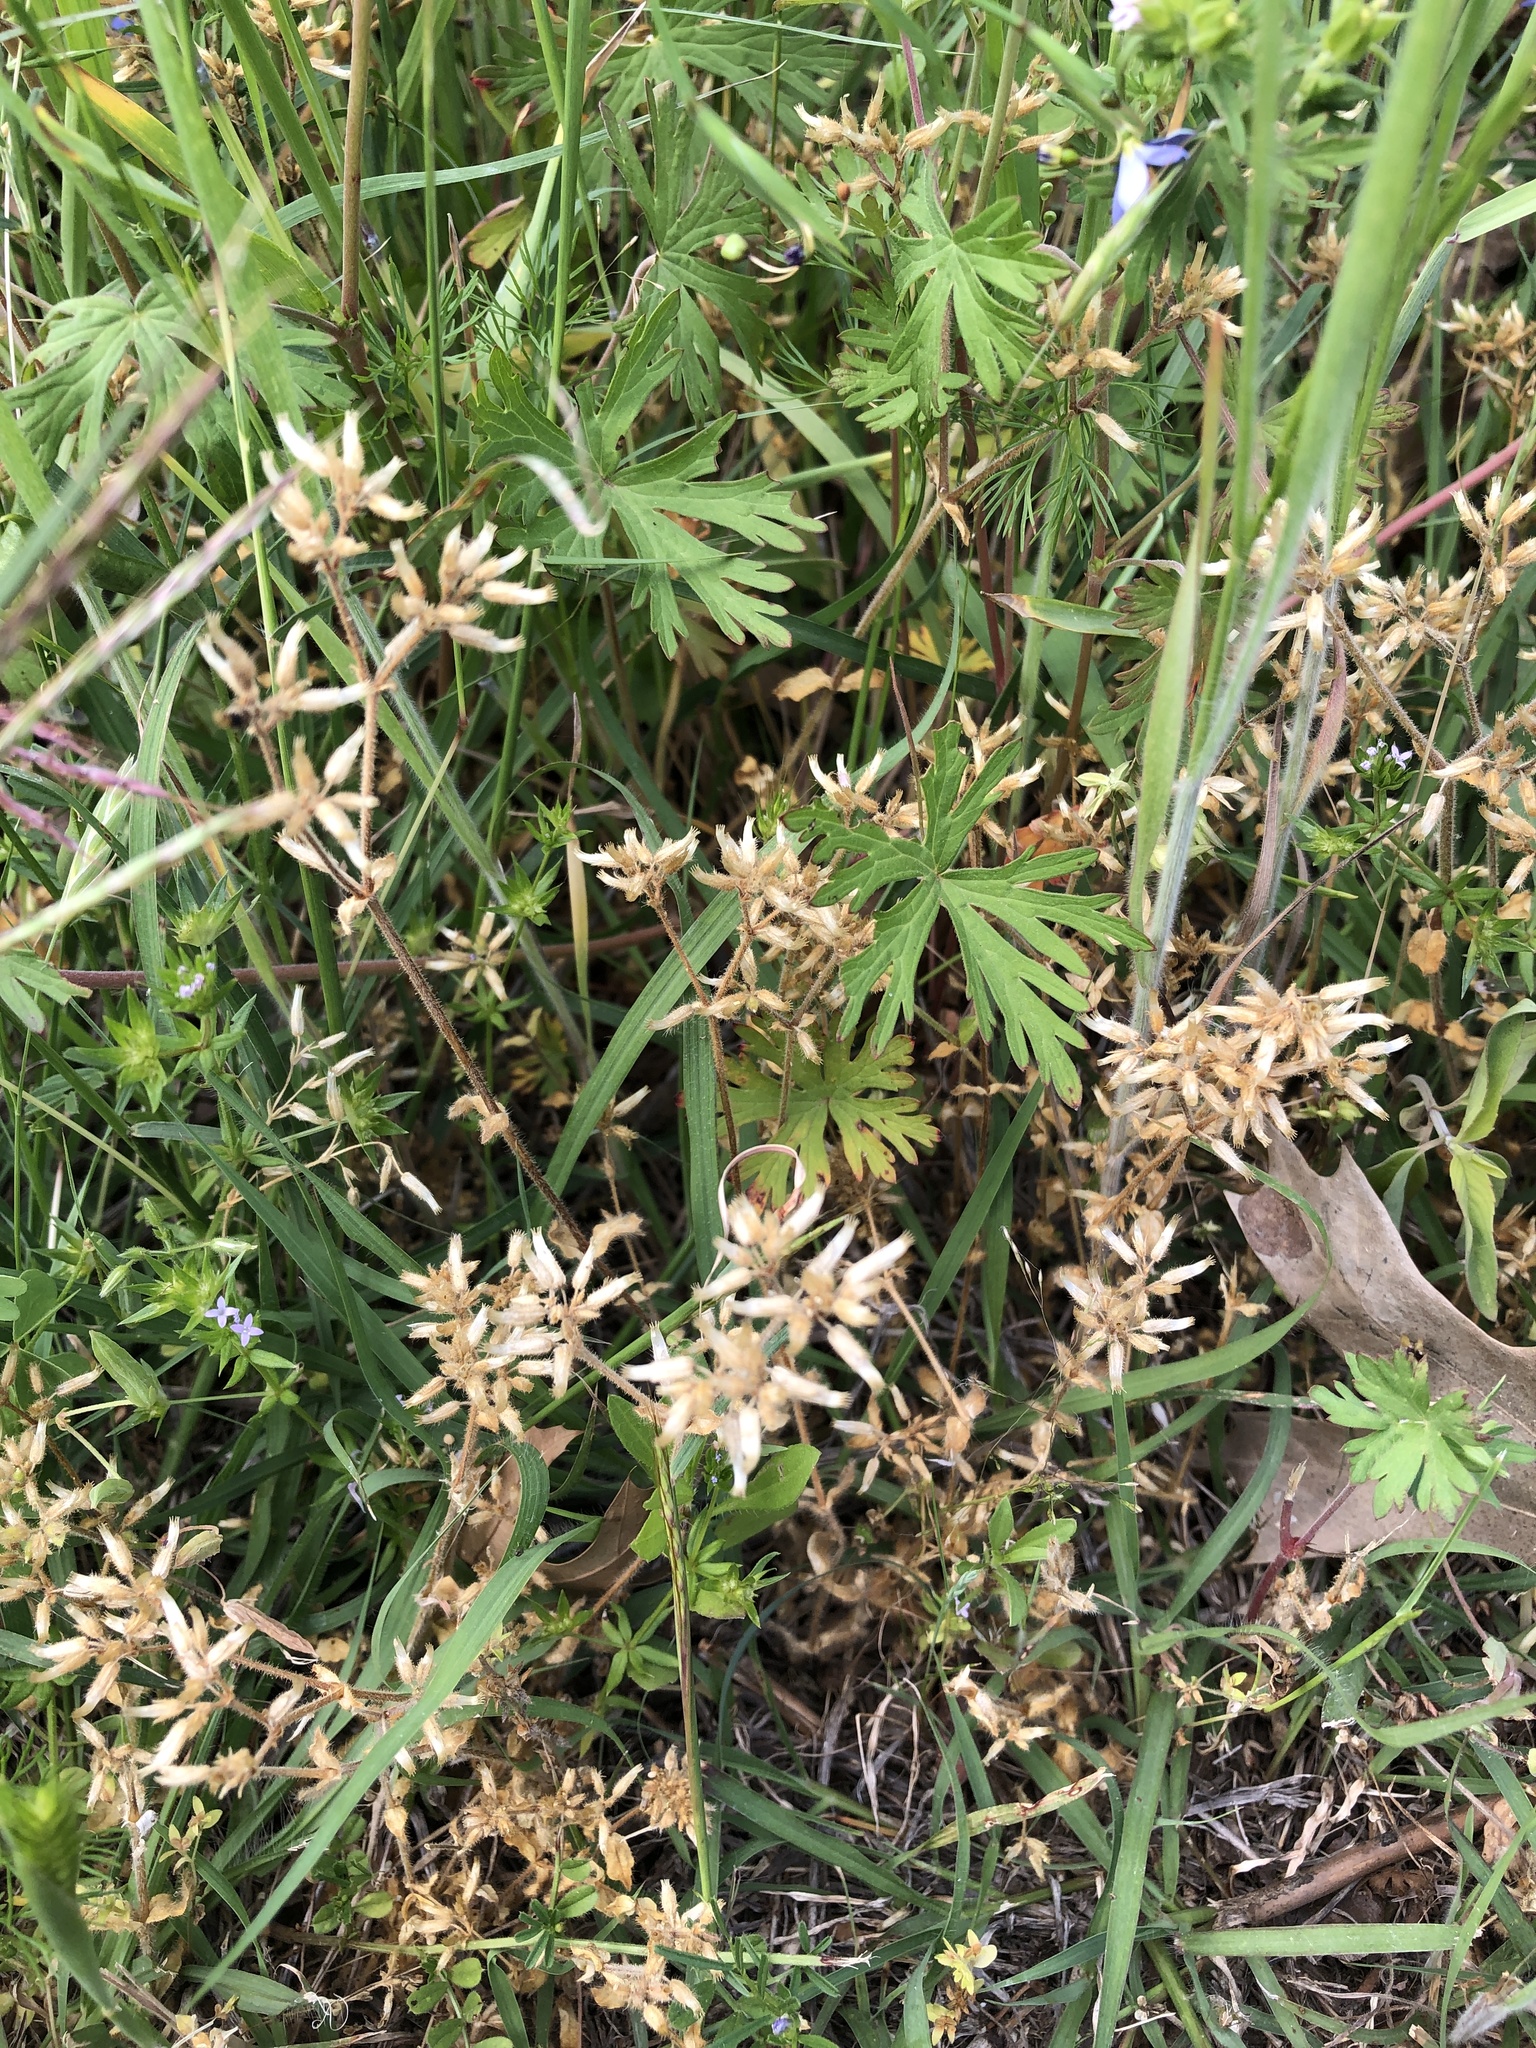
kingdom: Plantae
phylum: Tracheophyta
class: Magnoliopsida
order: Caryophyllales
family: Caryophyllaceae
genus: Cerastium
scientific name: Cerastium glomeratum
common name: Sticky chickweed
